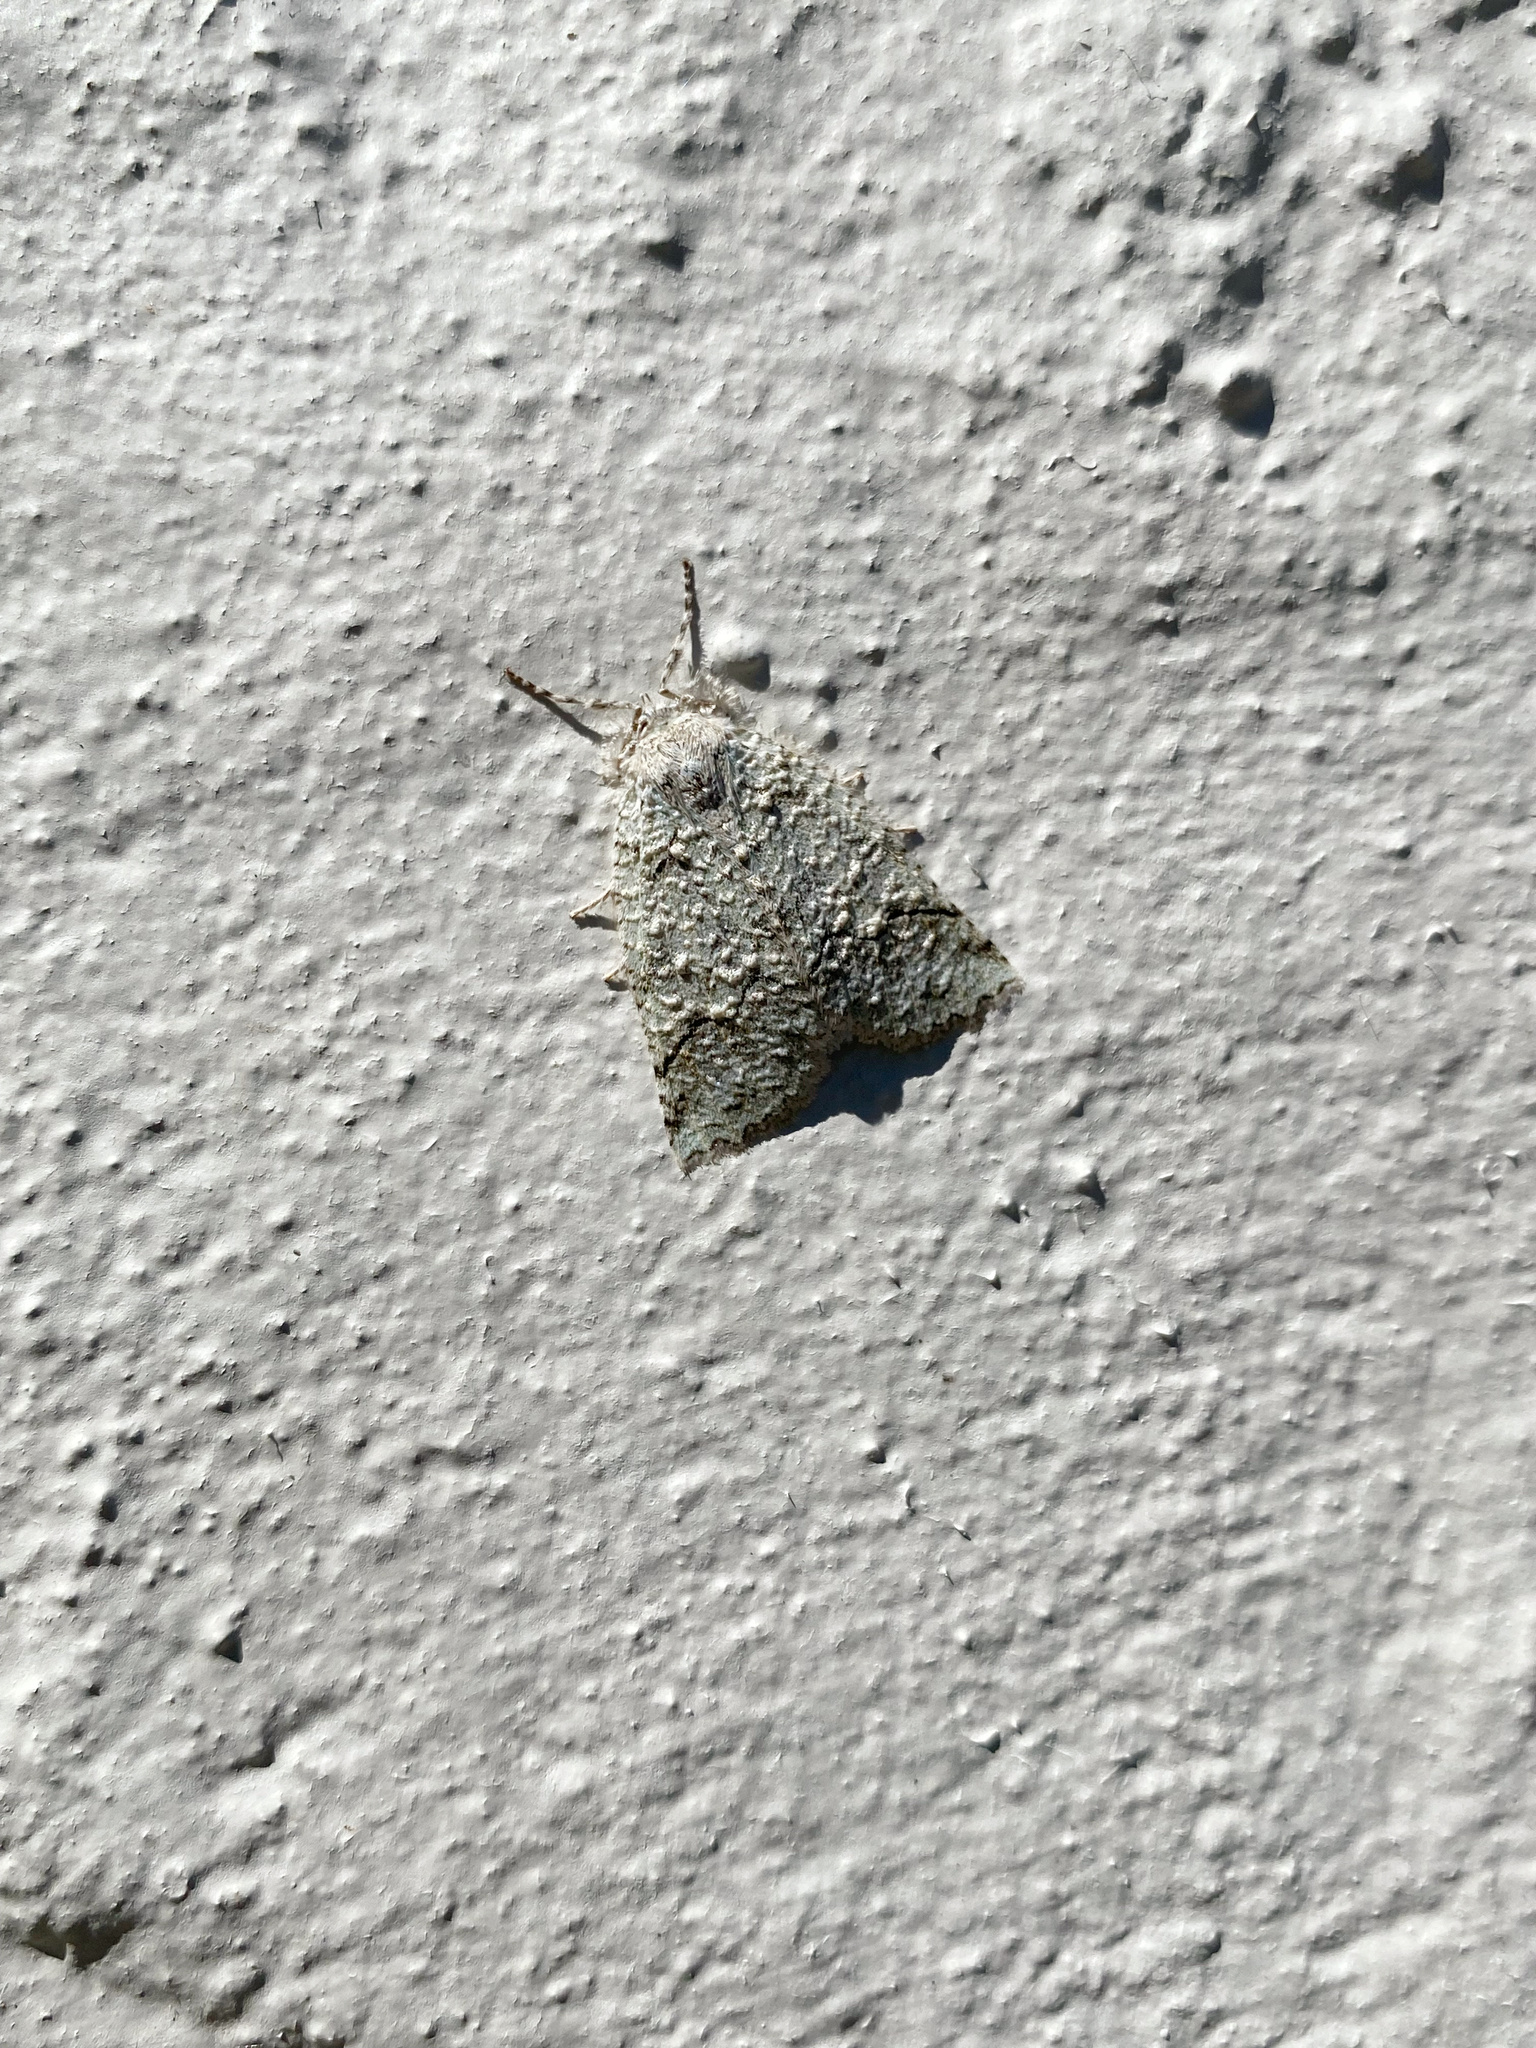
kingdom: Animalia
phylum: Arthropoda
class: Insecta
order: Lepidoptera
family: Geometridae
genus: Declana
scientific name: Declana floccosa
